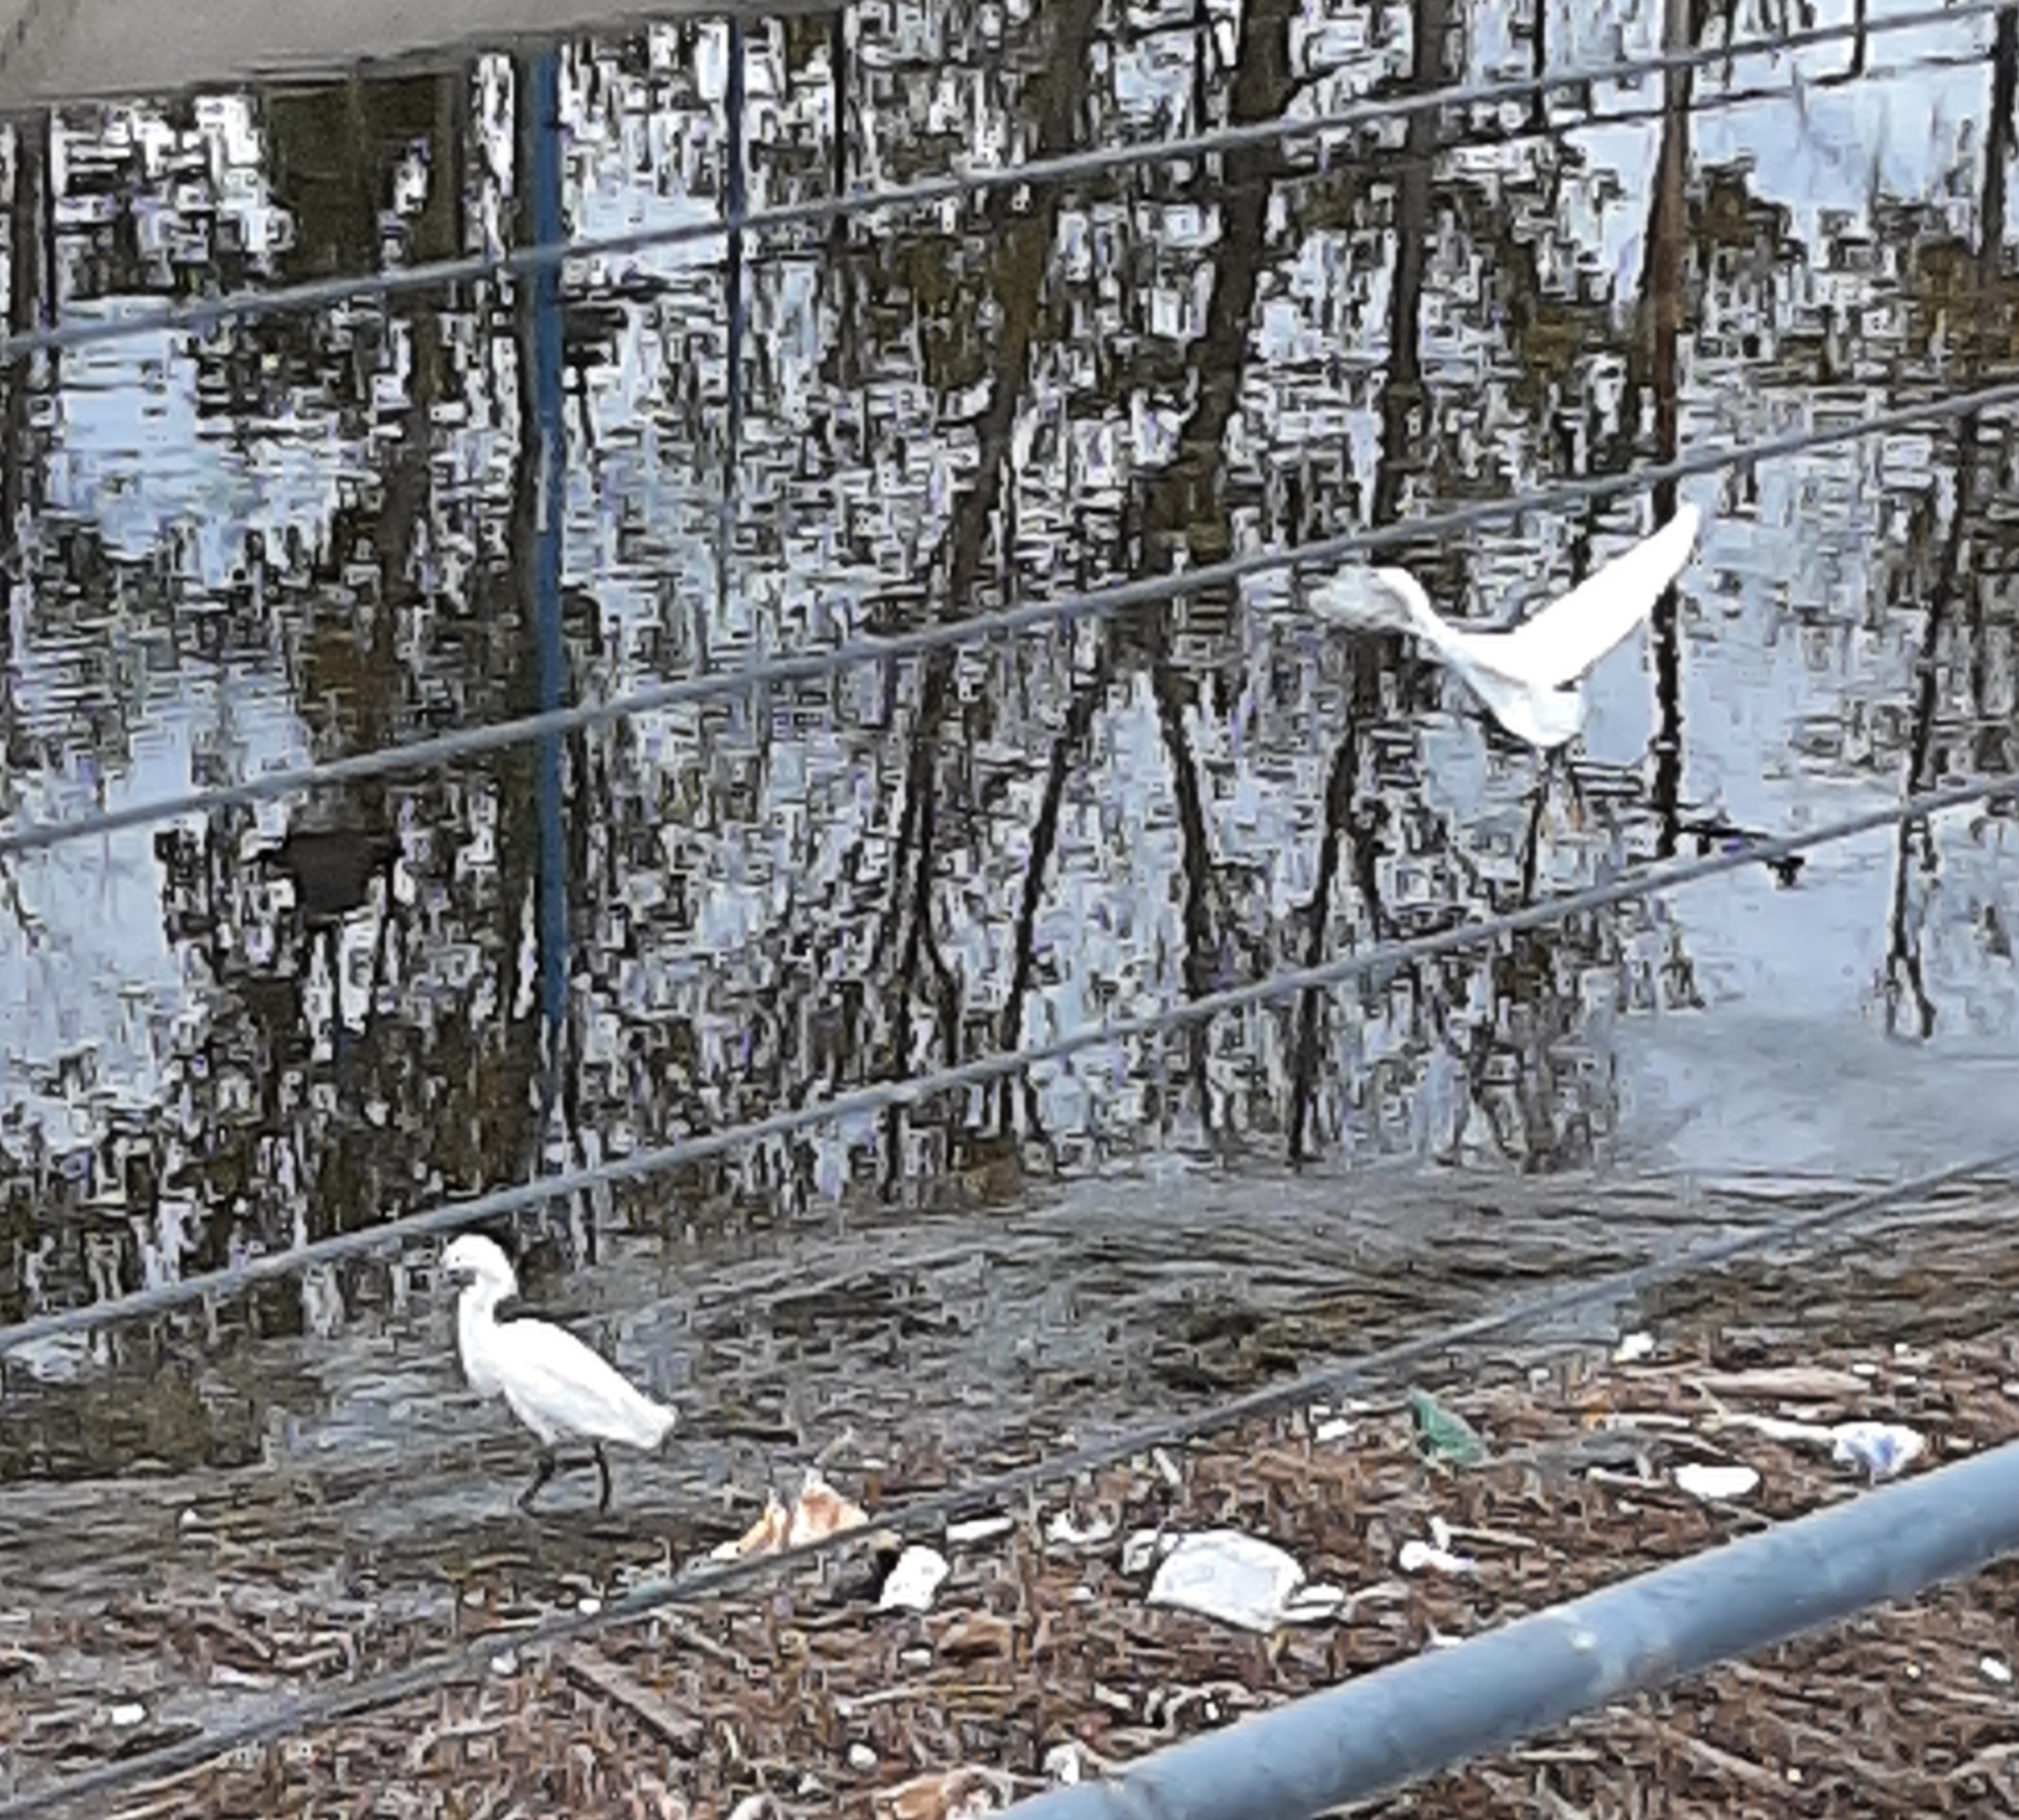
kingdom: Animalia
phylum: Chordata
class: Aves
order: Pelecaniformes
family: Ardeidae
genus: Egretta
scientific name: Egretta thula
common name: Snowy egret
